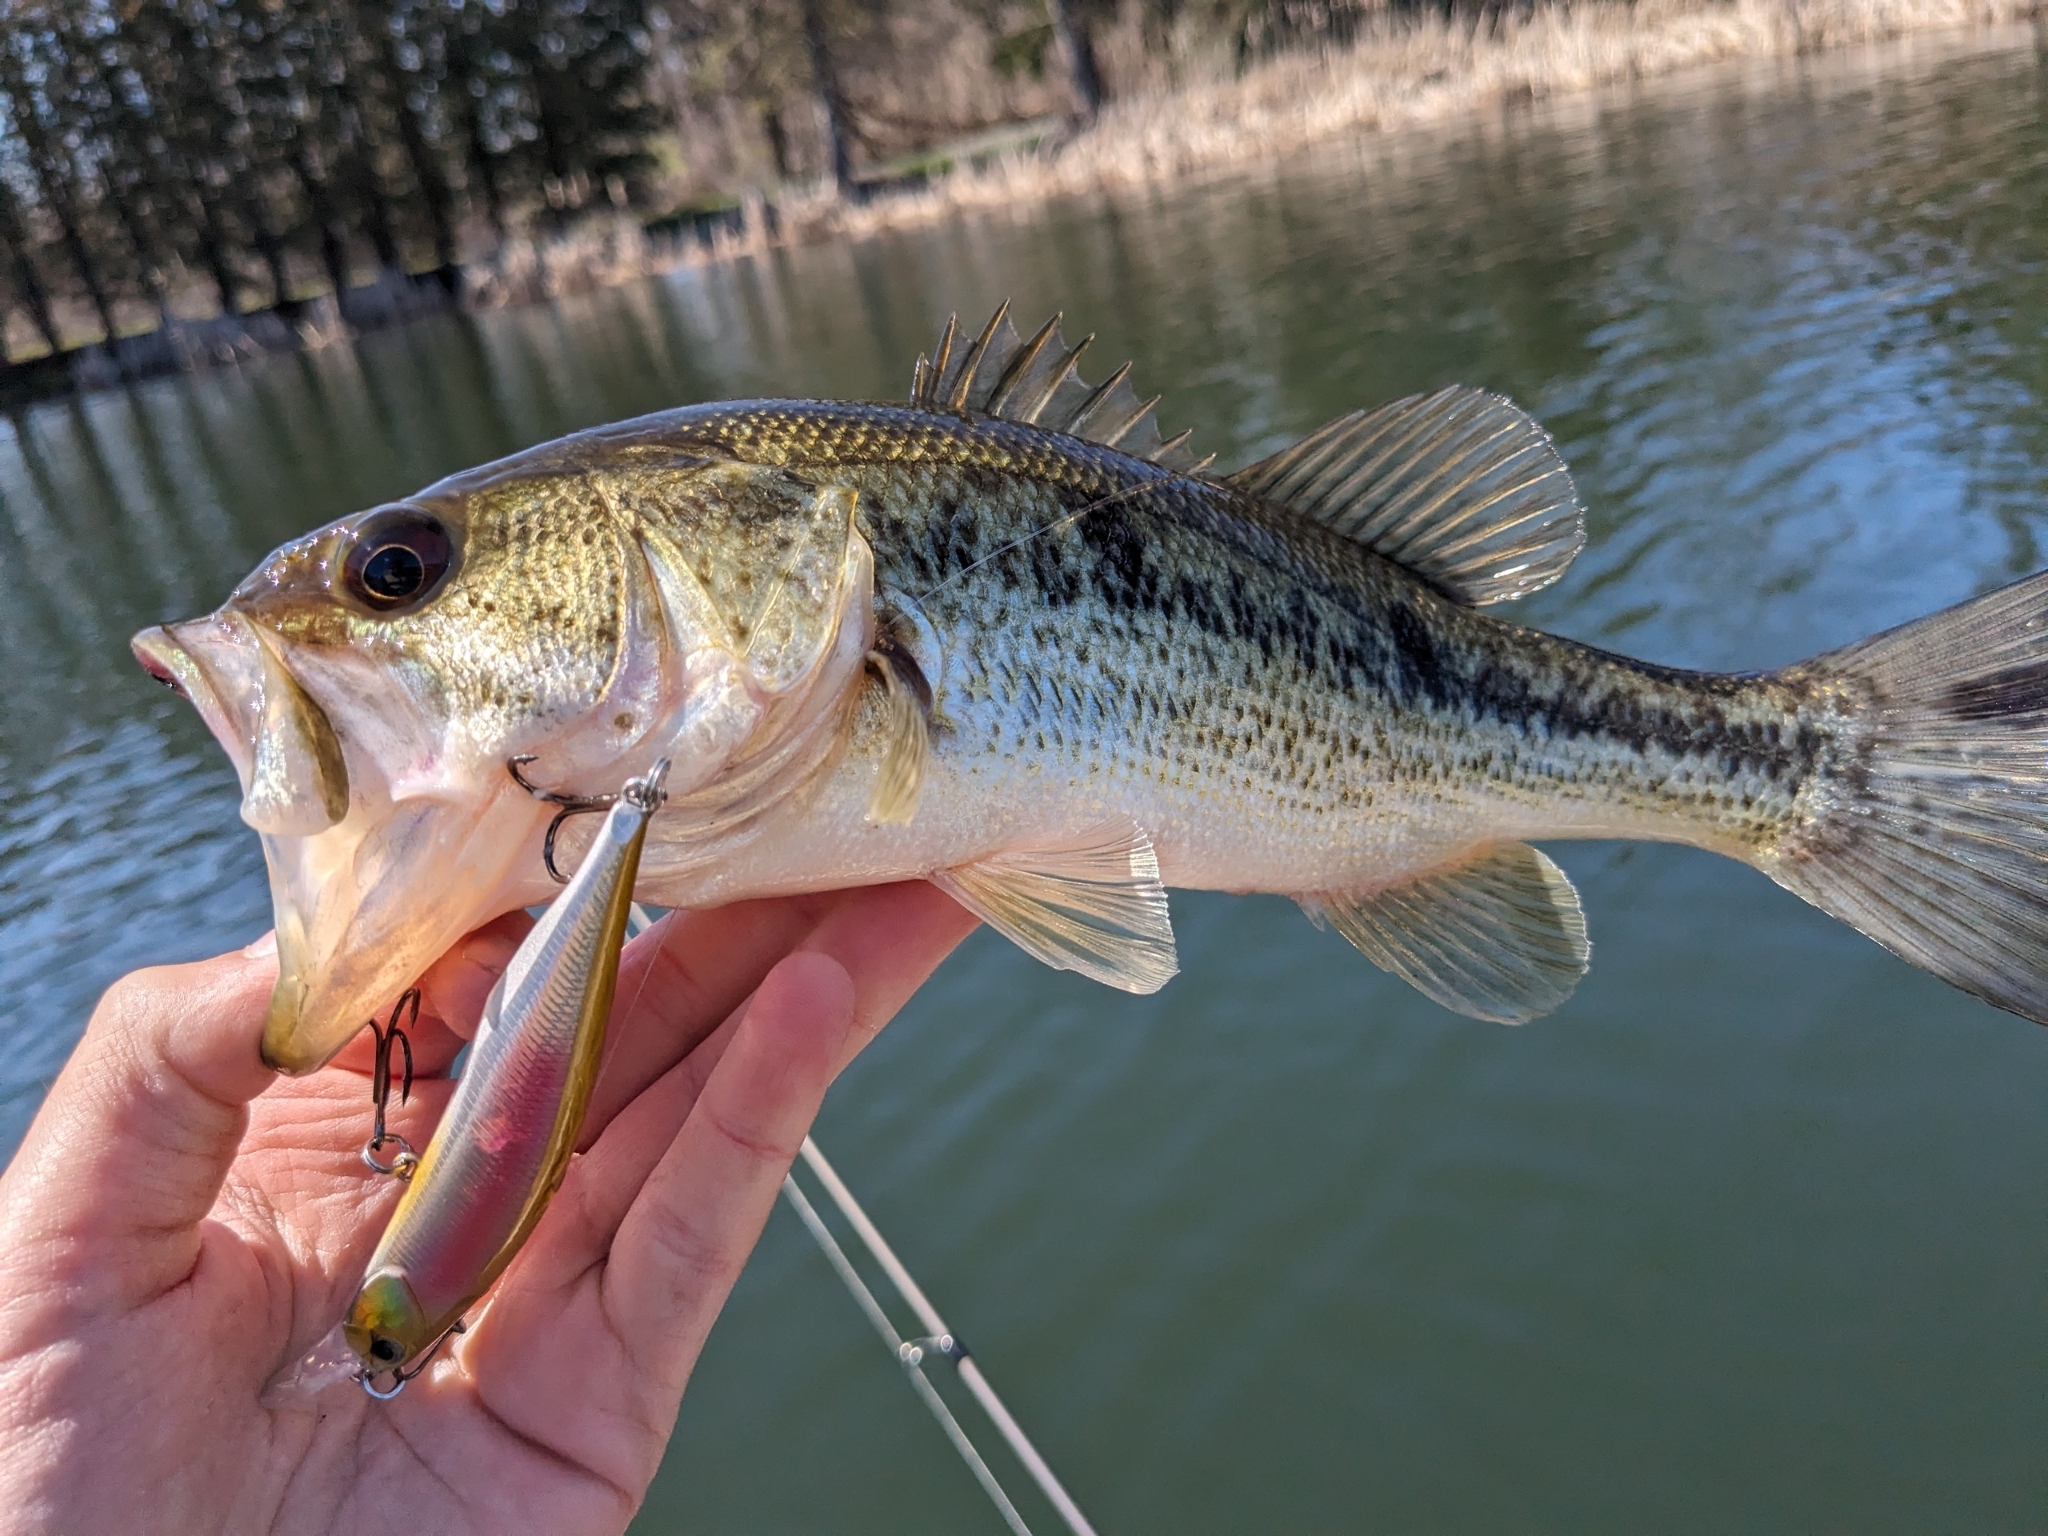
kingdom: Animalia
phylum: Chordata
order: Perciformes
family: Centrarchidae
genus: Micropterus
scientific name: Micropterus
